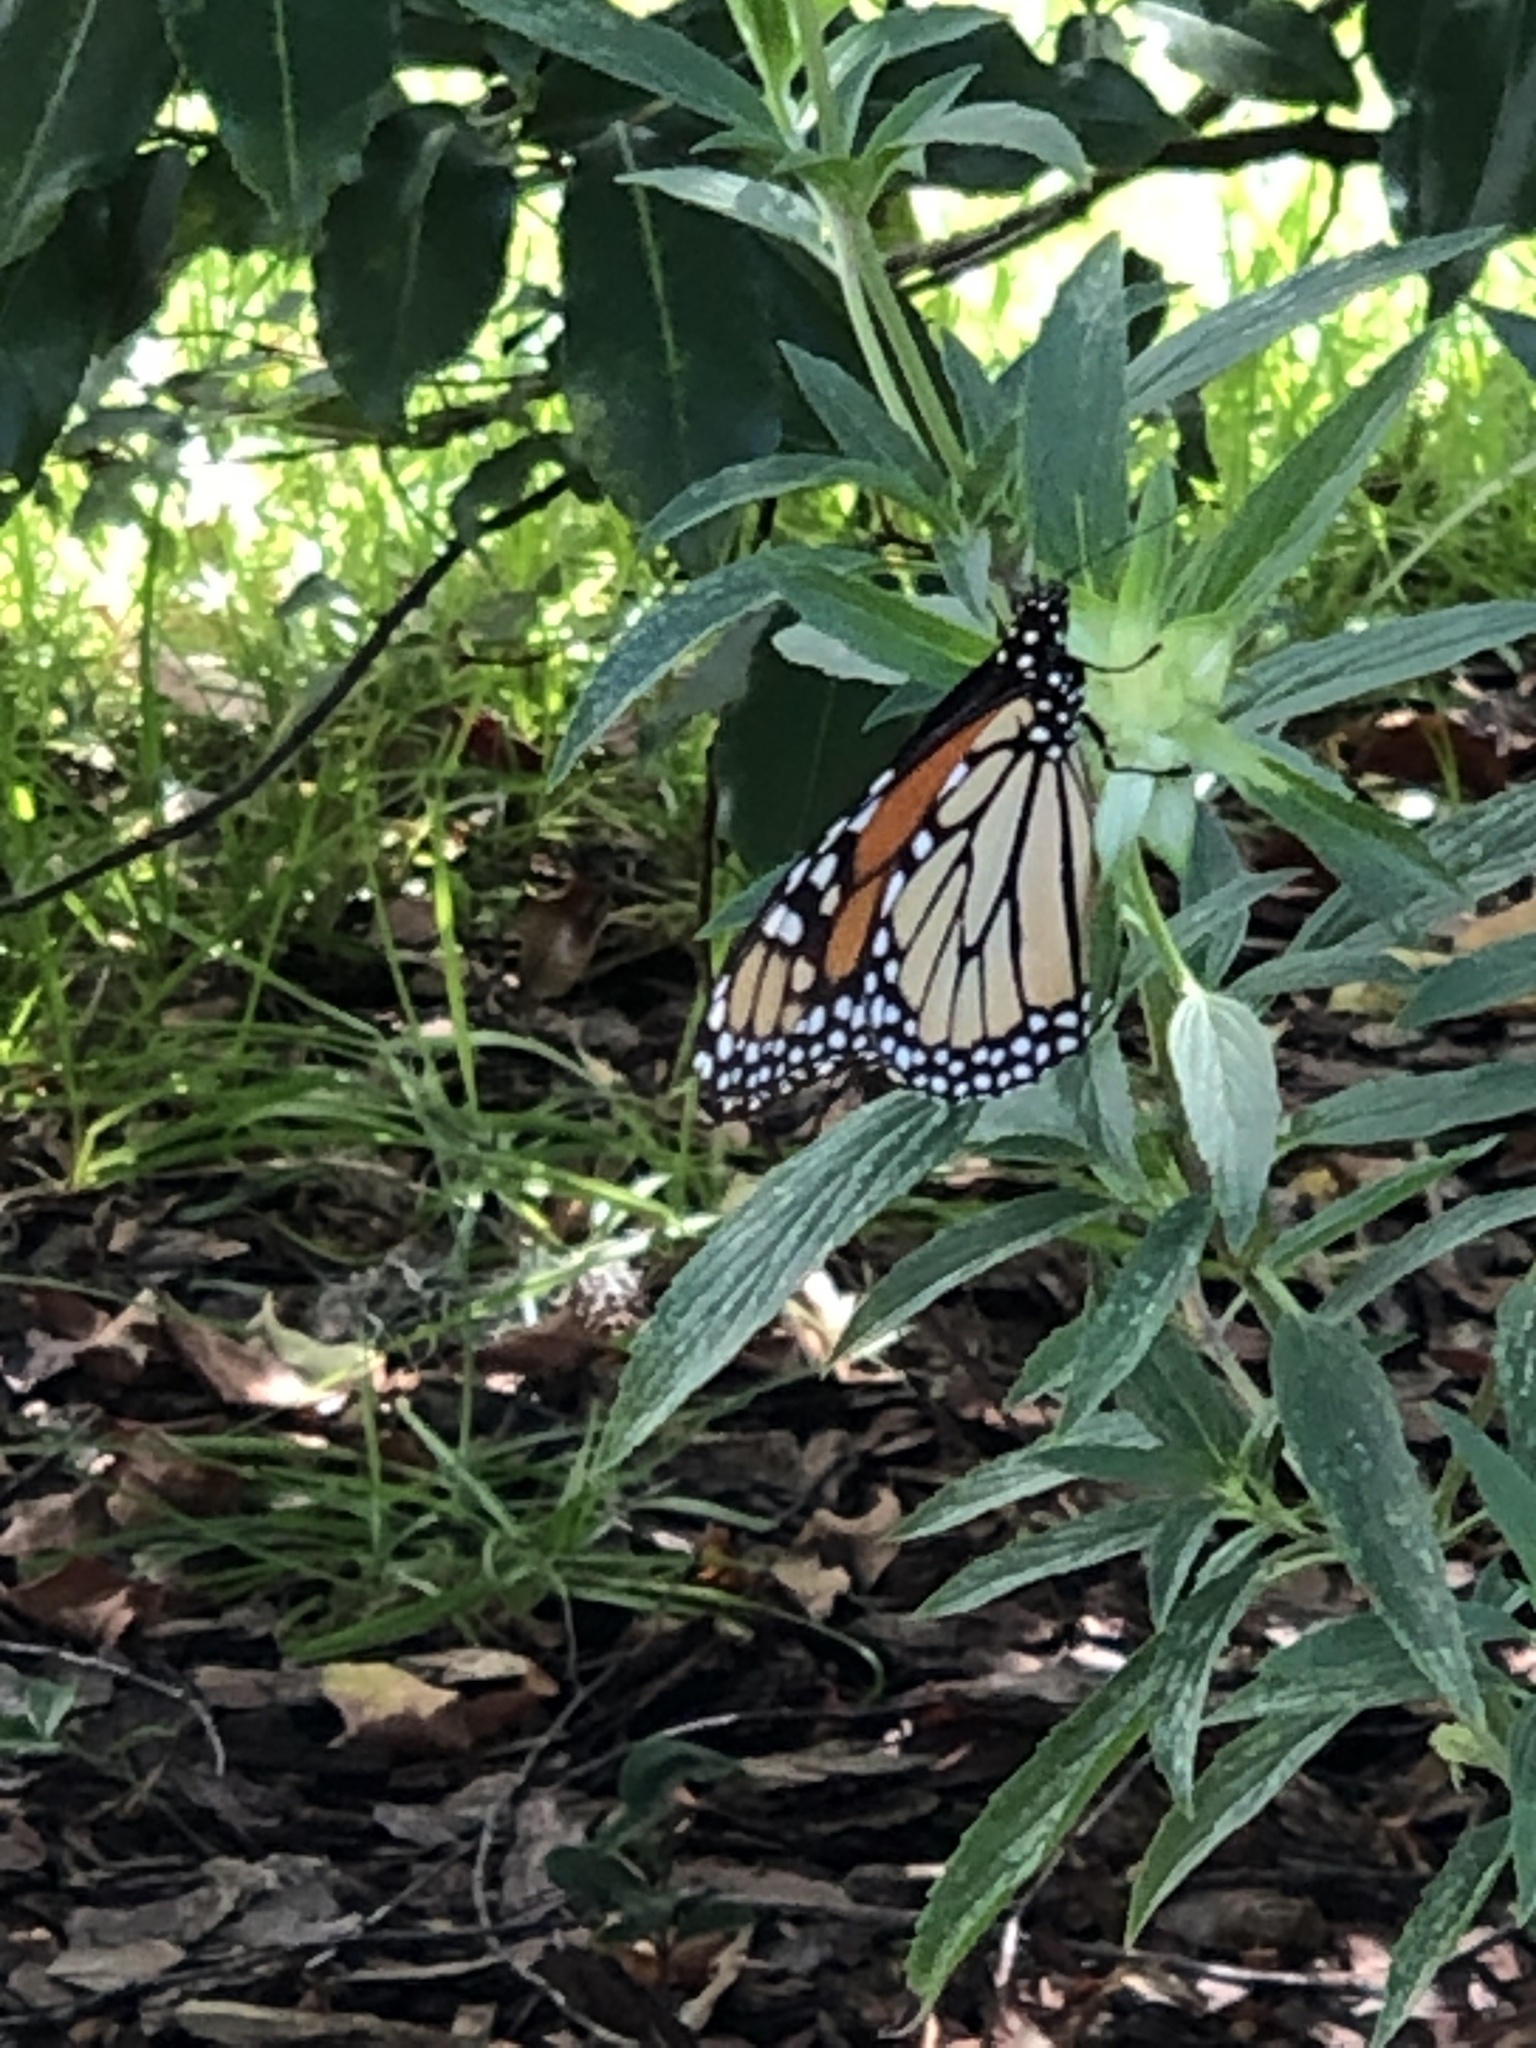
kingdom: Animalia
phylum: Arthropoda
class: Insecta
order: Lepidoptera
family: Nymphalidae
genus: Danaus
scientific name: Danaus plexippus
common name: Monarch
